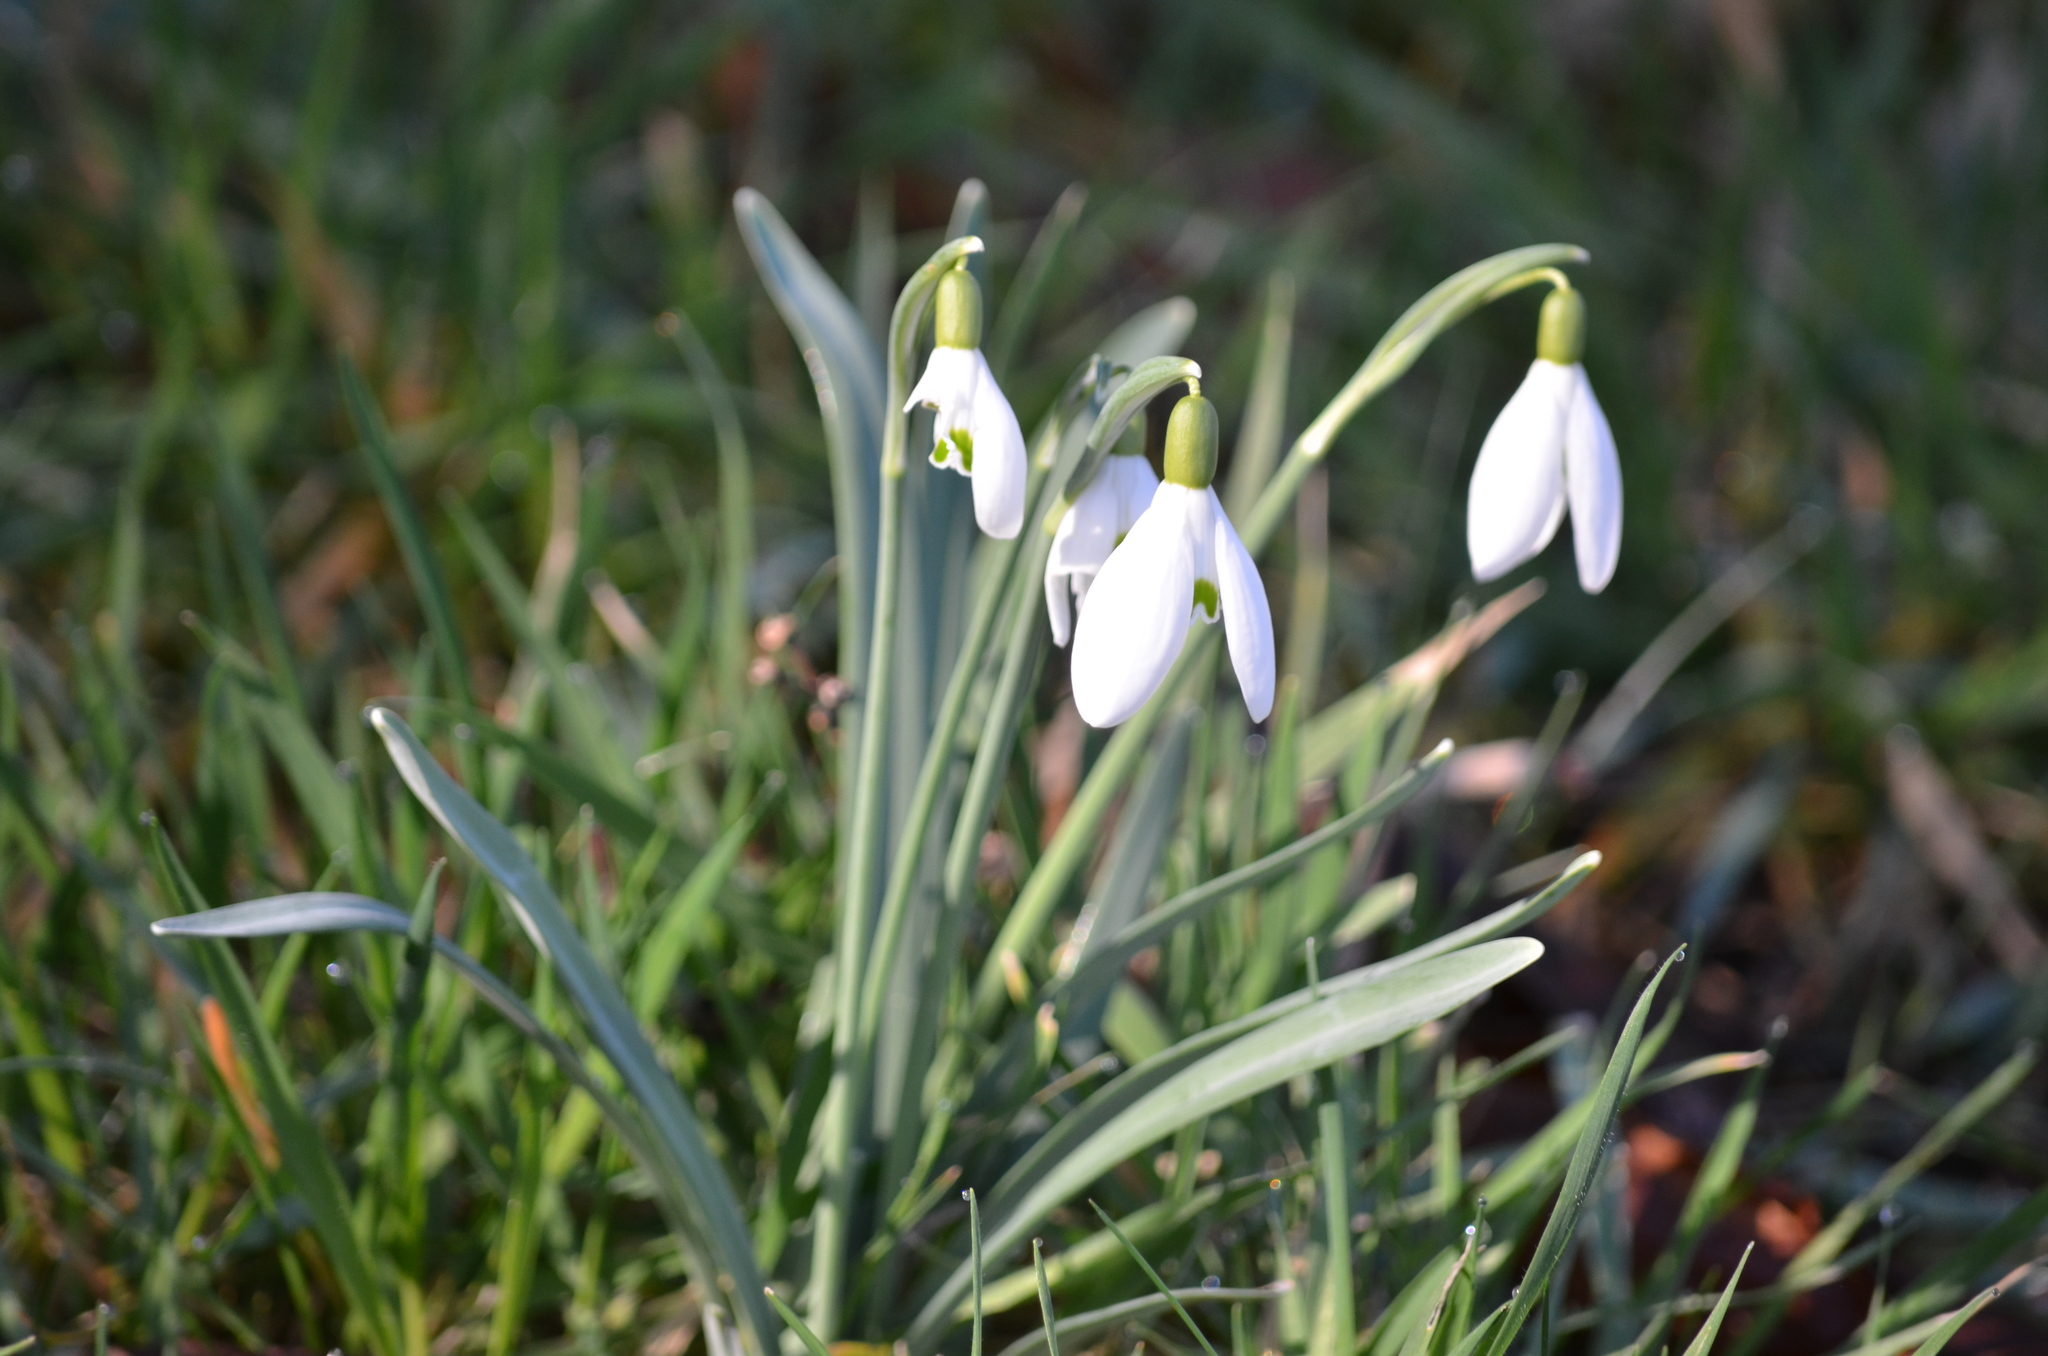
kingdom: Plantae
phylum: Tracheophyta
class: Liliopsida
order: Asparagales
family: Amaryllidaceae
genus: Galanthus
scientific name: Galanthus nivalis
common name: Snowdrop
